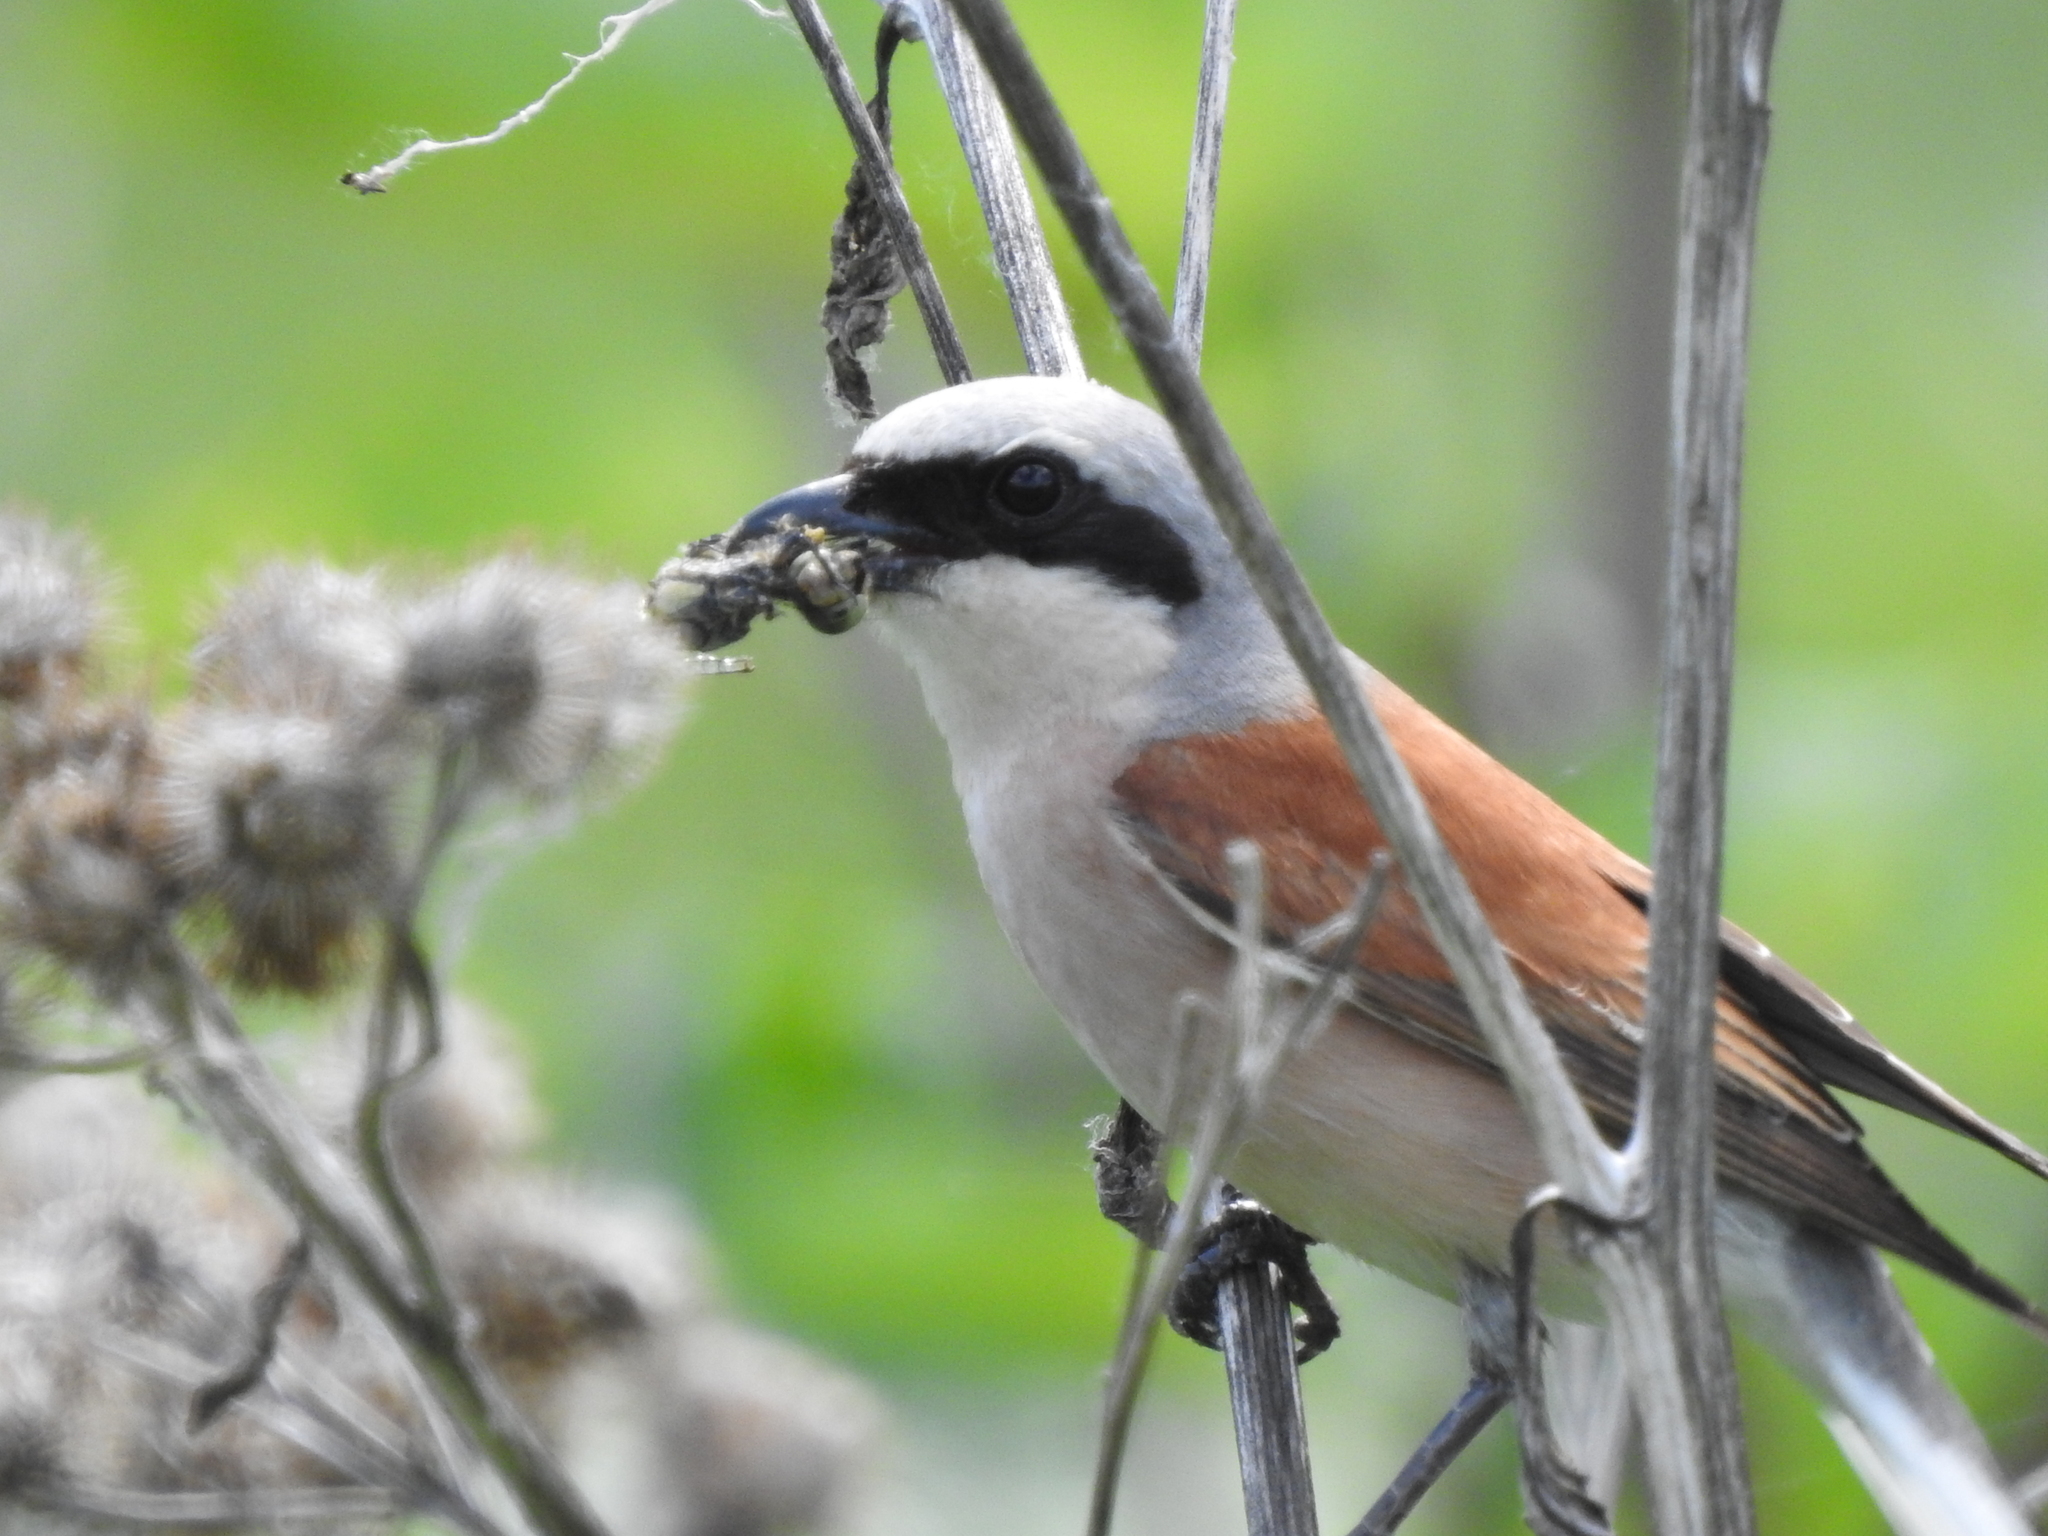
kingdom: Animalia
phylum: Chordata
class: Aves
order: Passeriformes
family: Laniidae
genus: Lanius
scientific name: Lanius collurio
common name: Red-backed shrike
